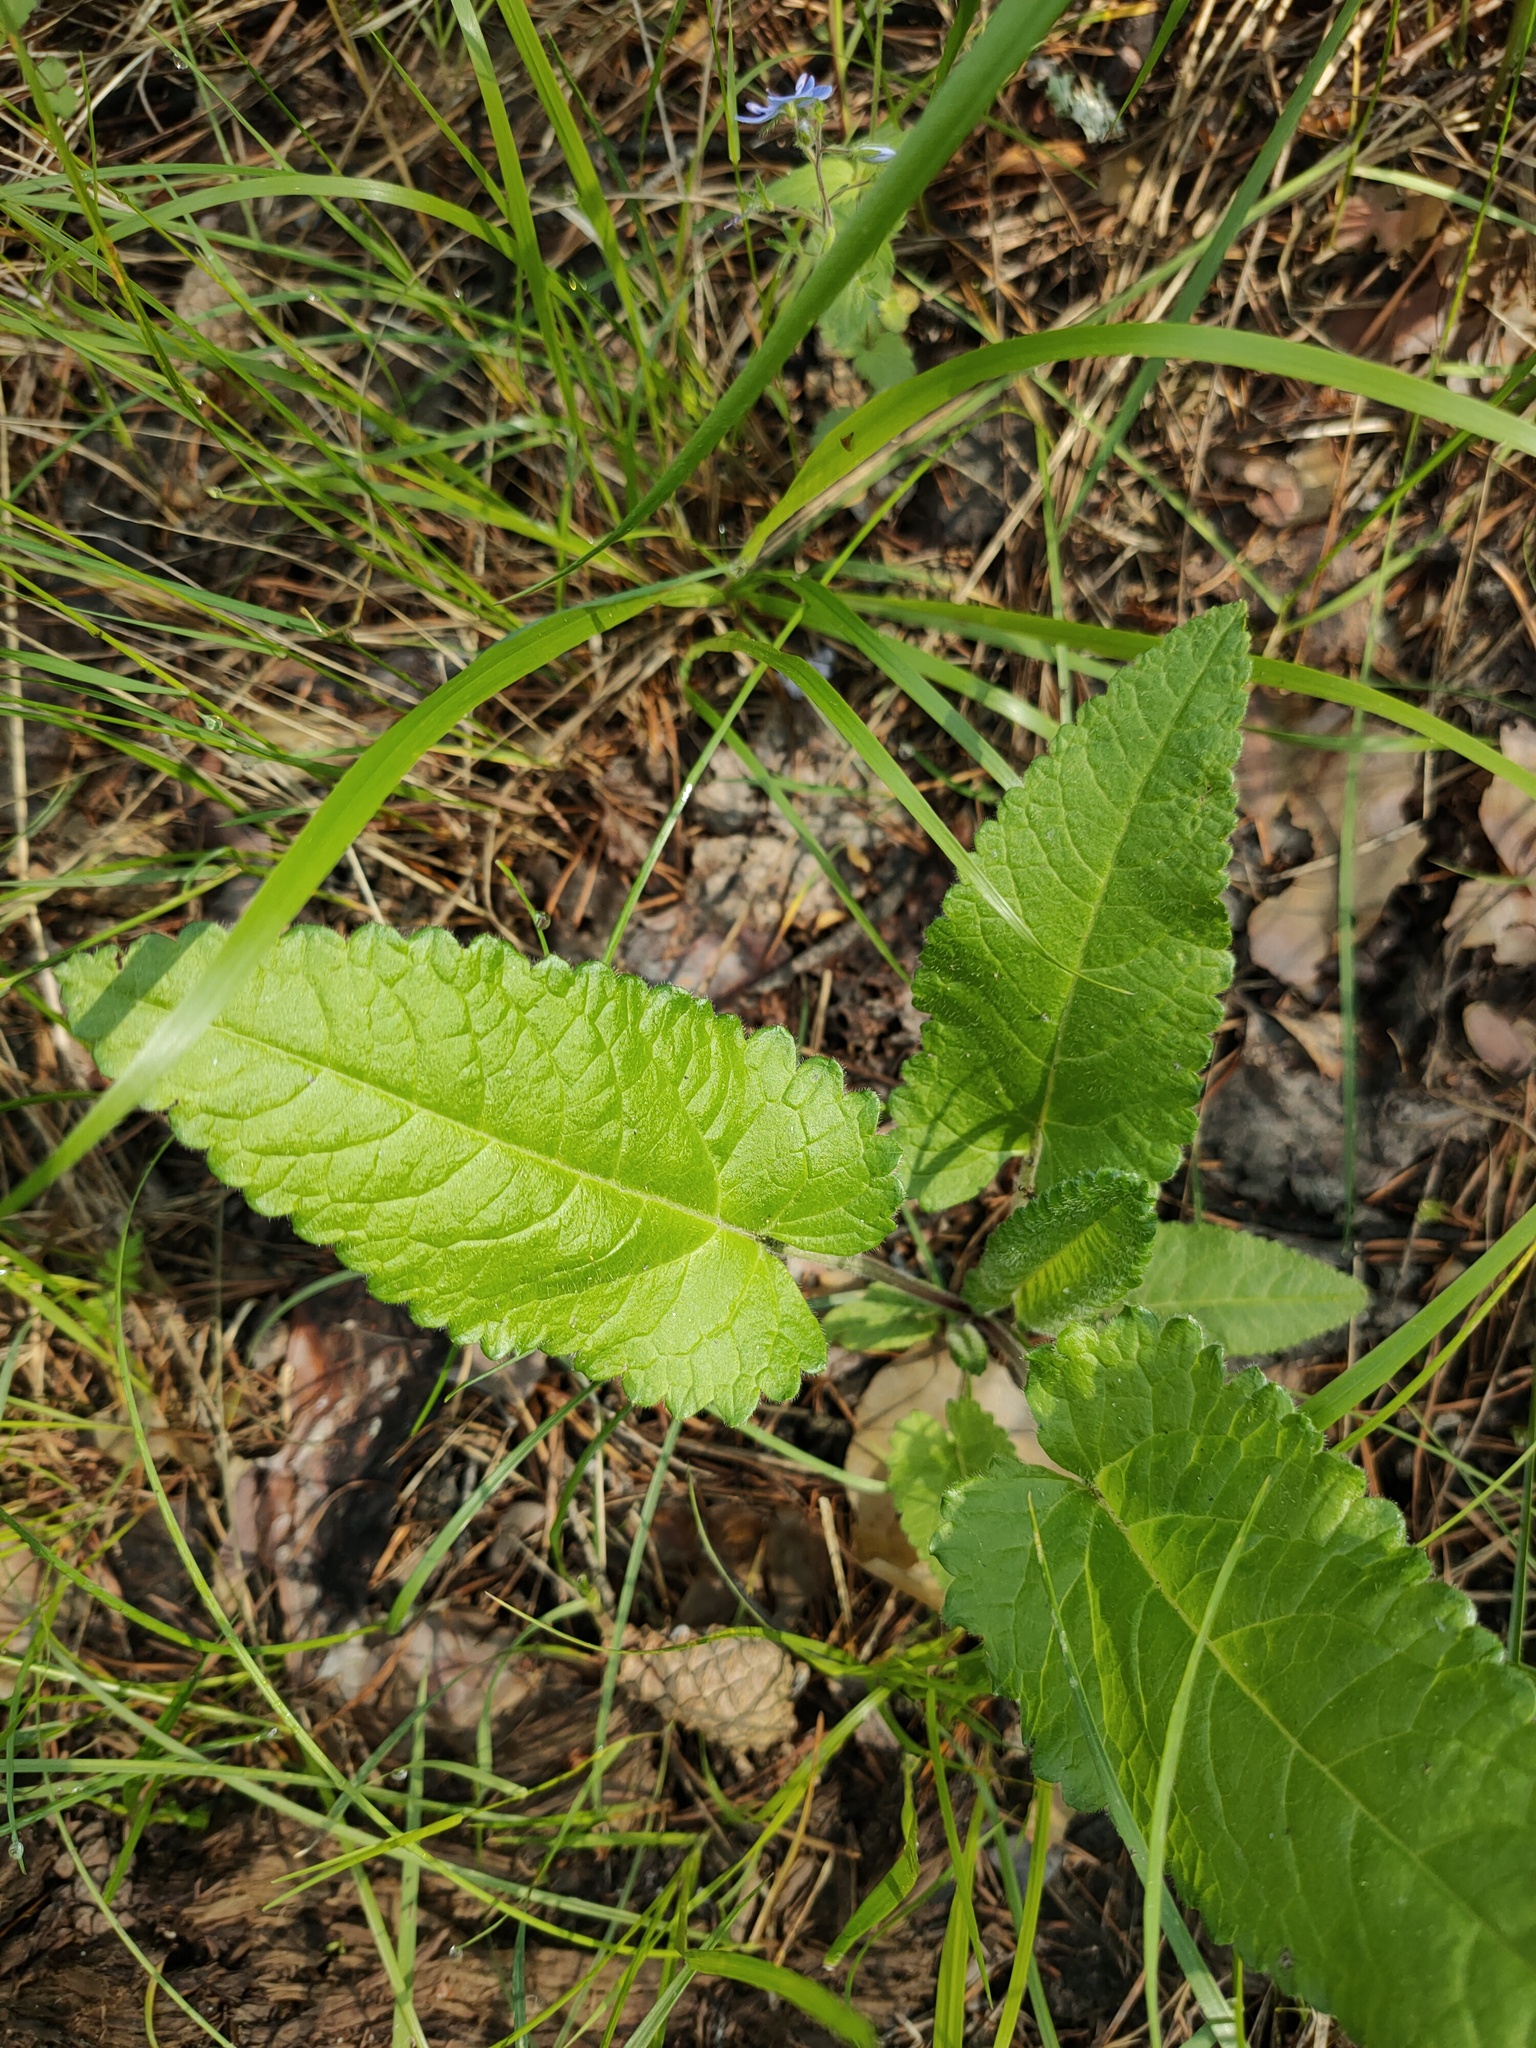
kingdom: Plantae
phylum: Tracheophyta
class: Magnoliopsida
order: Lamiales
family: Lamiaceae
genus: Betonica
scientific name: Betonica officinalis
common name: Bishop's-wort
